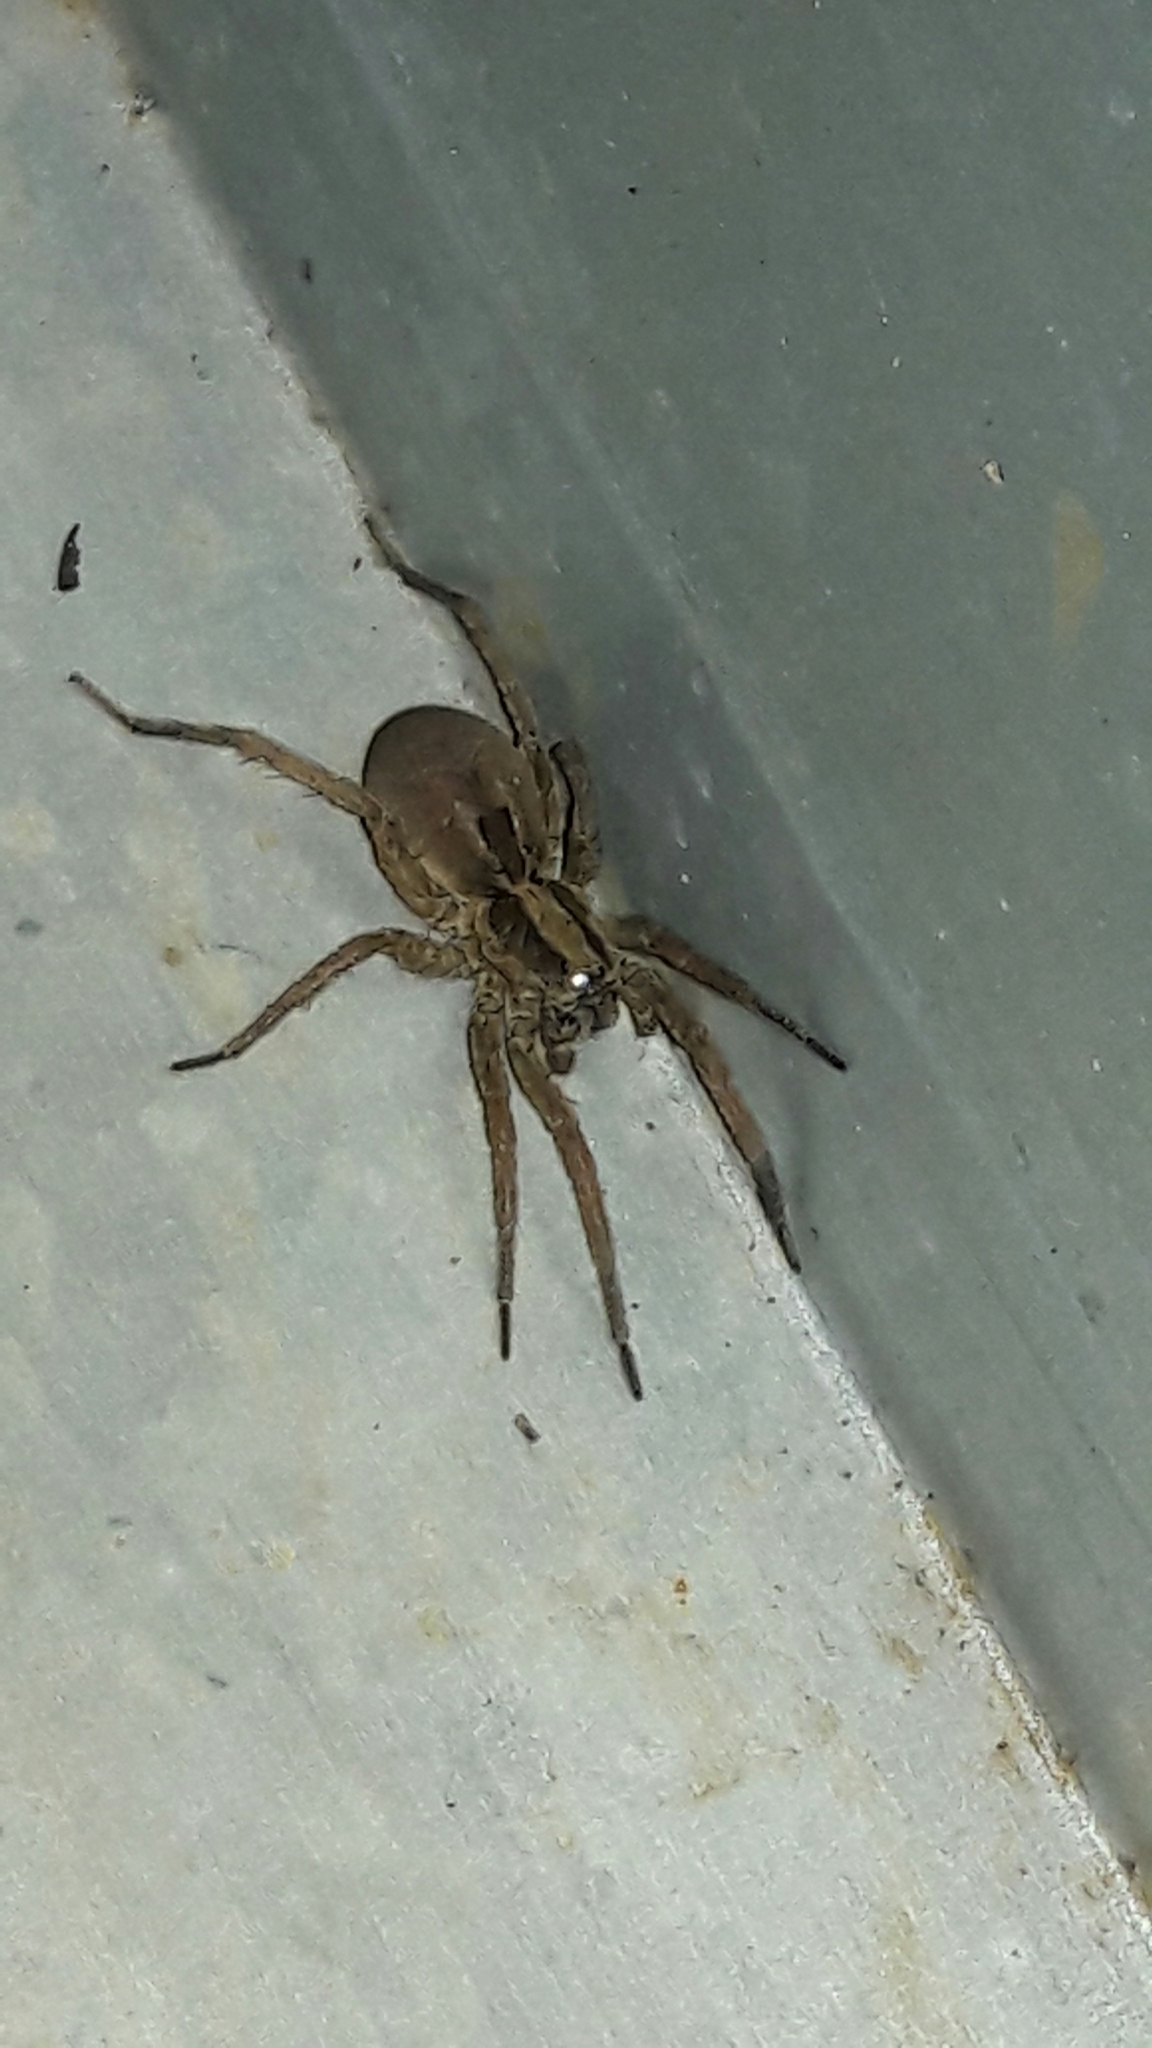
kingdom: Animalia
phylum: Arthropoda
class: Arachnida
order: Araneae
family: Lycosidae
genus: Lycosa
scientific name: Lycosa erythrognatha
